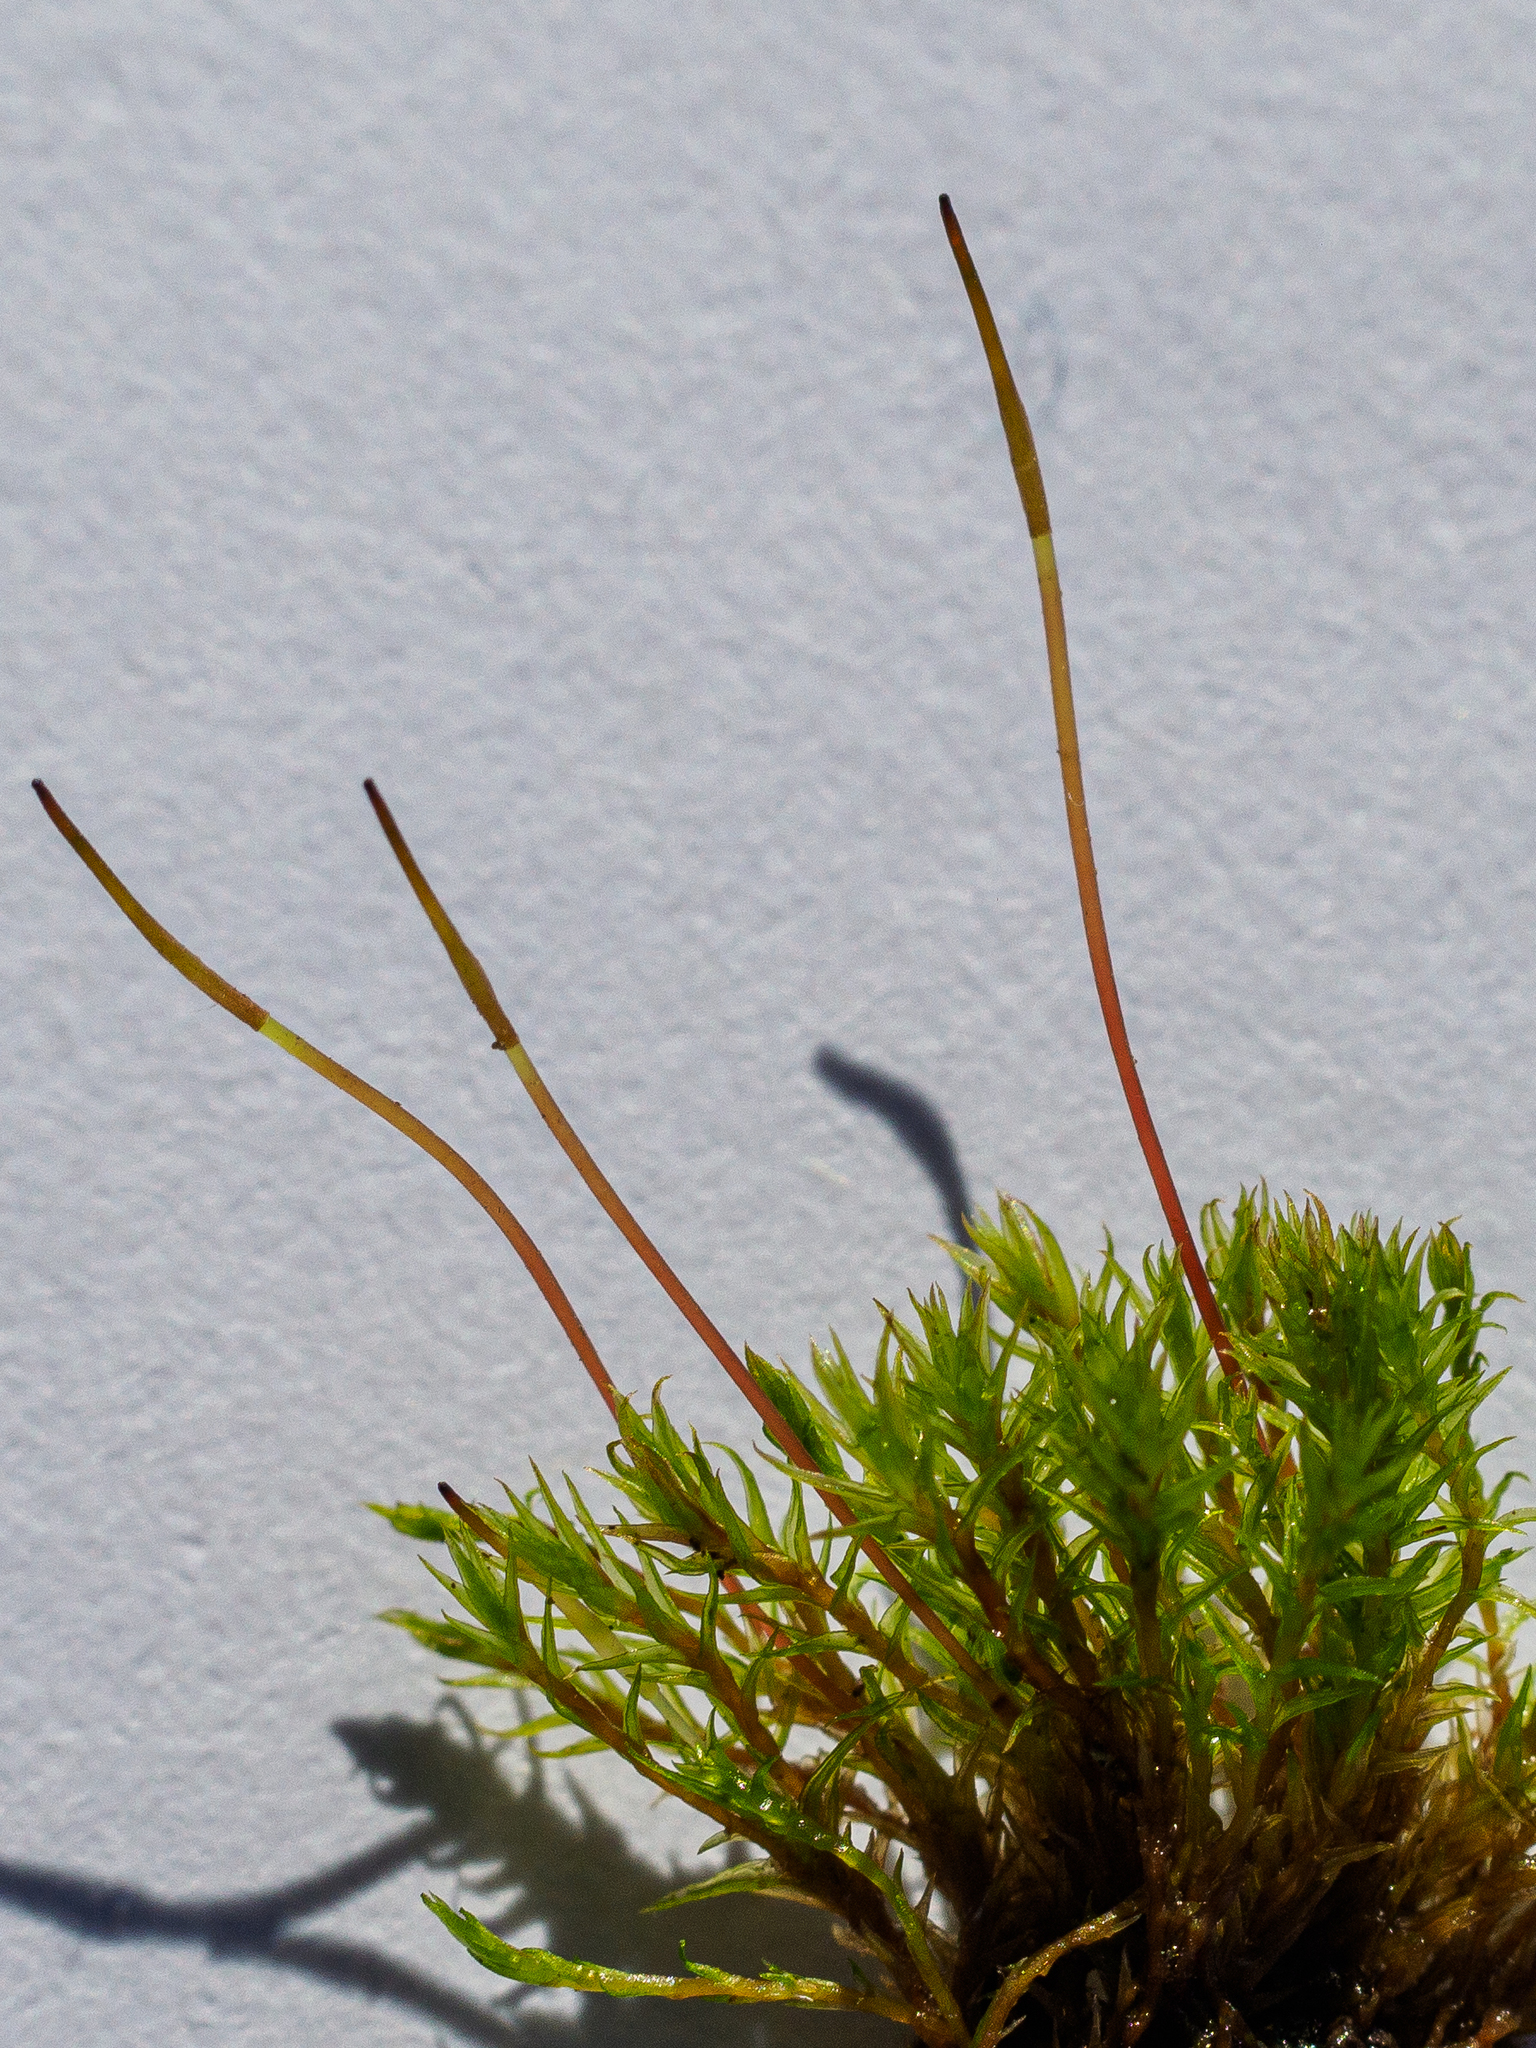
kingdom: Plantae
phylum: Bryophyta
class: Bryopsida
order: Dicranales
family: Ditrichaceae
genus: Ceratodon
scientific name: Ceratodon purpureus
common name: Redshank
